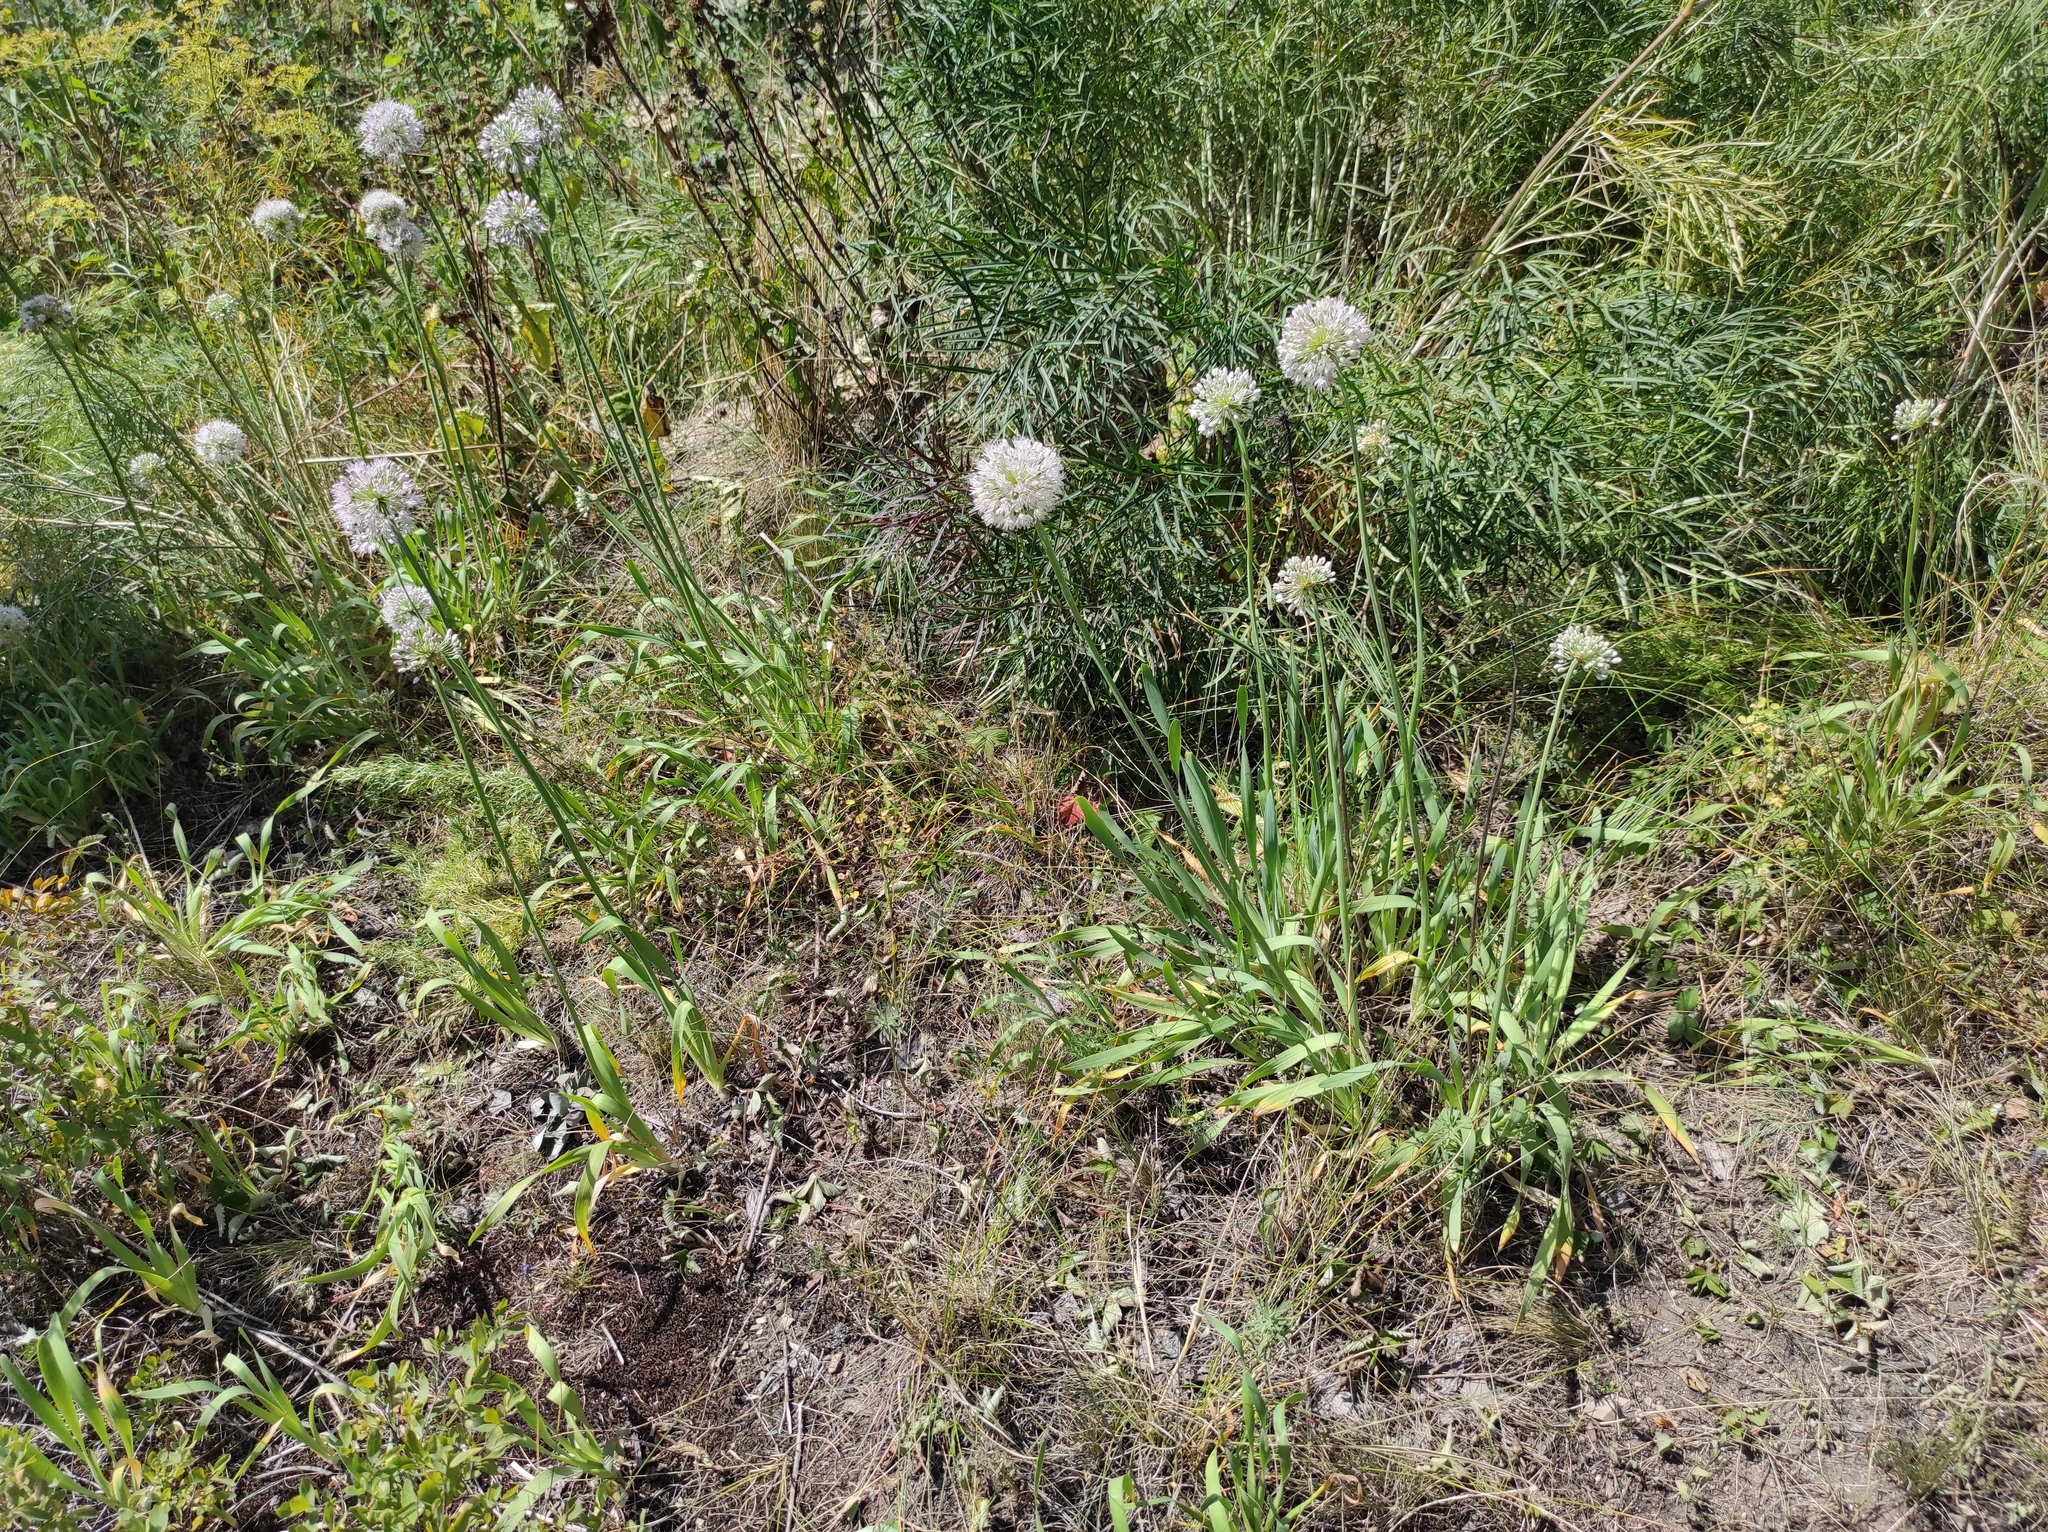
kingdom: Plantae
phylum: Tracheophyta
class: Liliopsida
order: Asparagales
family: Amaryllidaceae
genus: Allium
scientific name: Allium nutans
